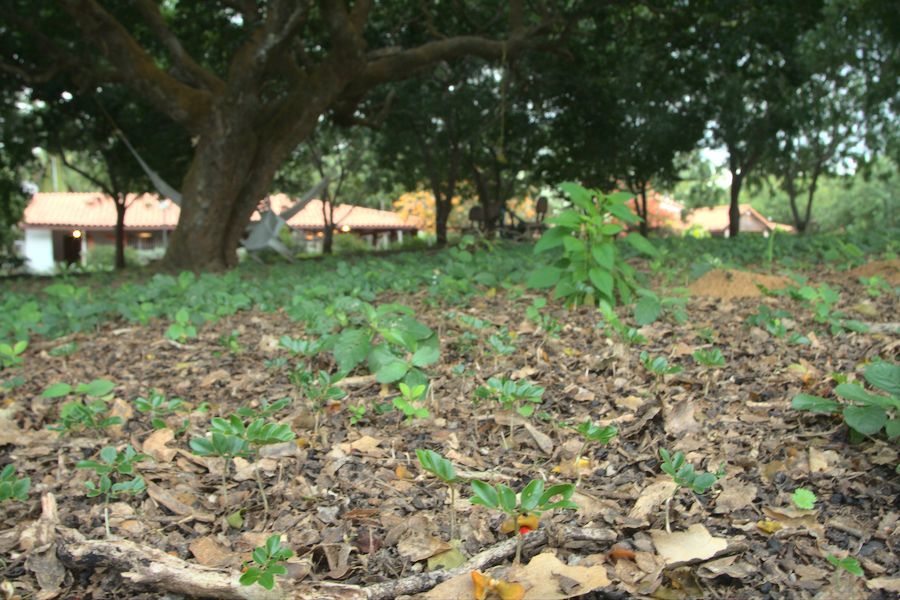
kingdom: Plantae
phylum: Tracheophyta
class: Magnoliopsida
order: Zygophyllales
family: Zygophyllaceae
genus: Guaiacum
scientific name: Guaiacum officinale
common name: Lignum vitae
